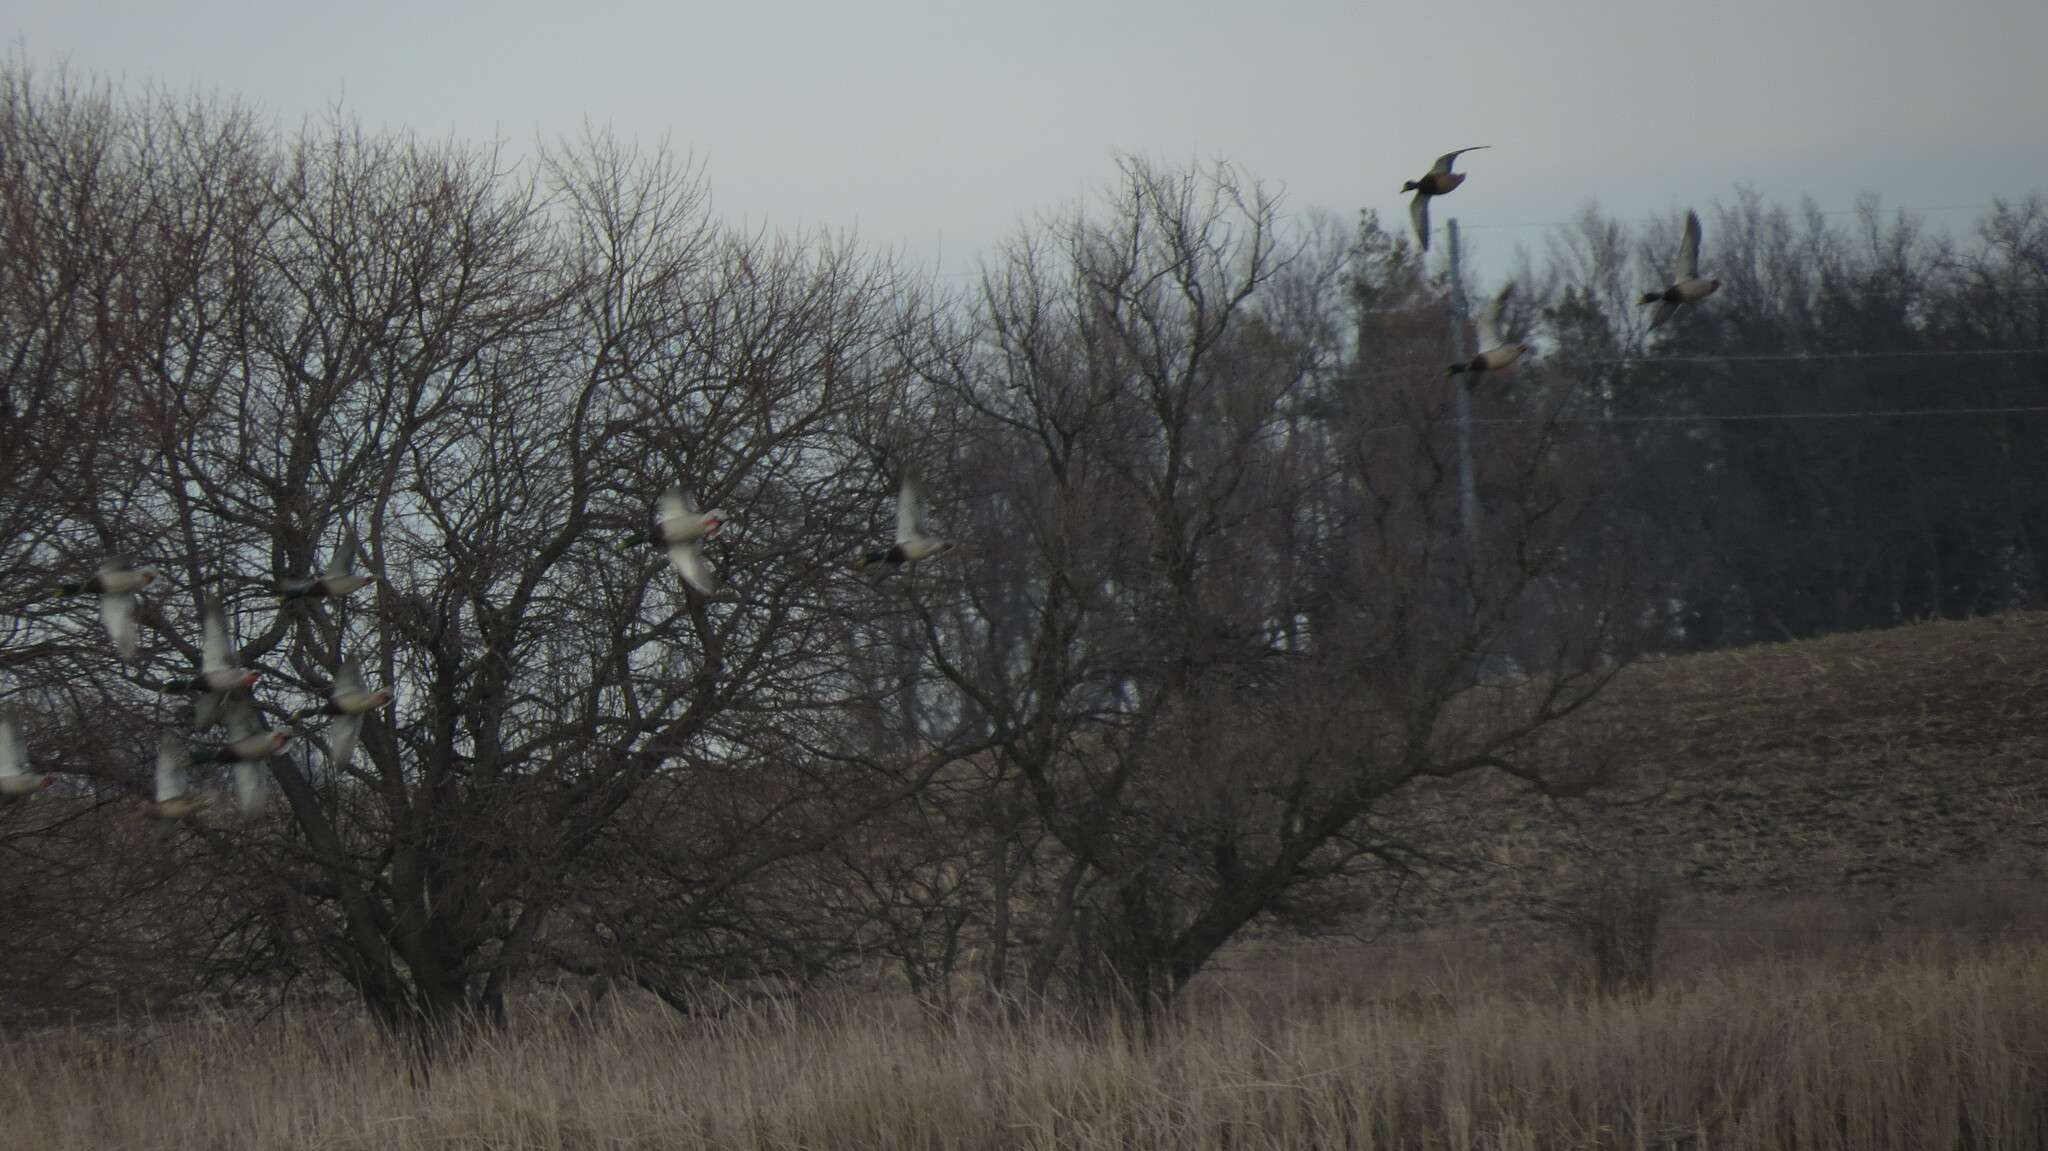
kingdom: Animalia
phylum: Chordata
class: Aves
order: Anseriformes
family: Anatidae
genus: Anas
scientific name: Anas platyrhynchos
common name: Mallard
